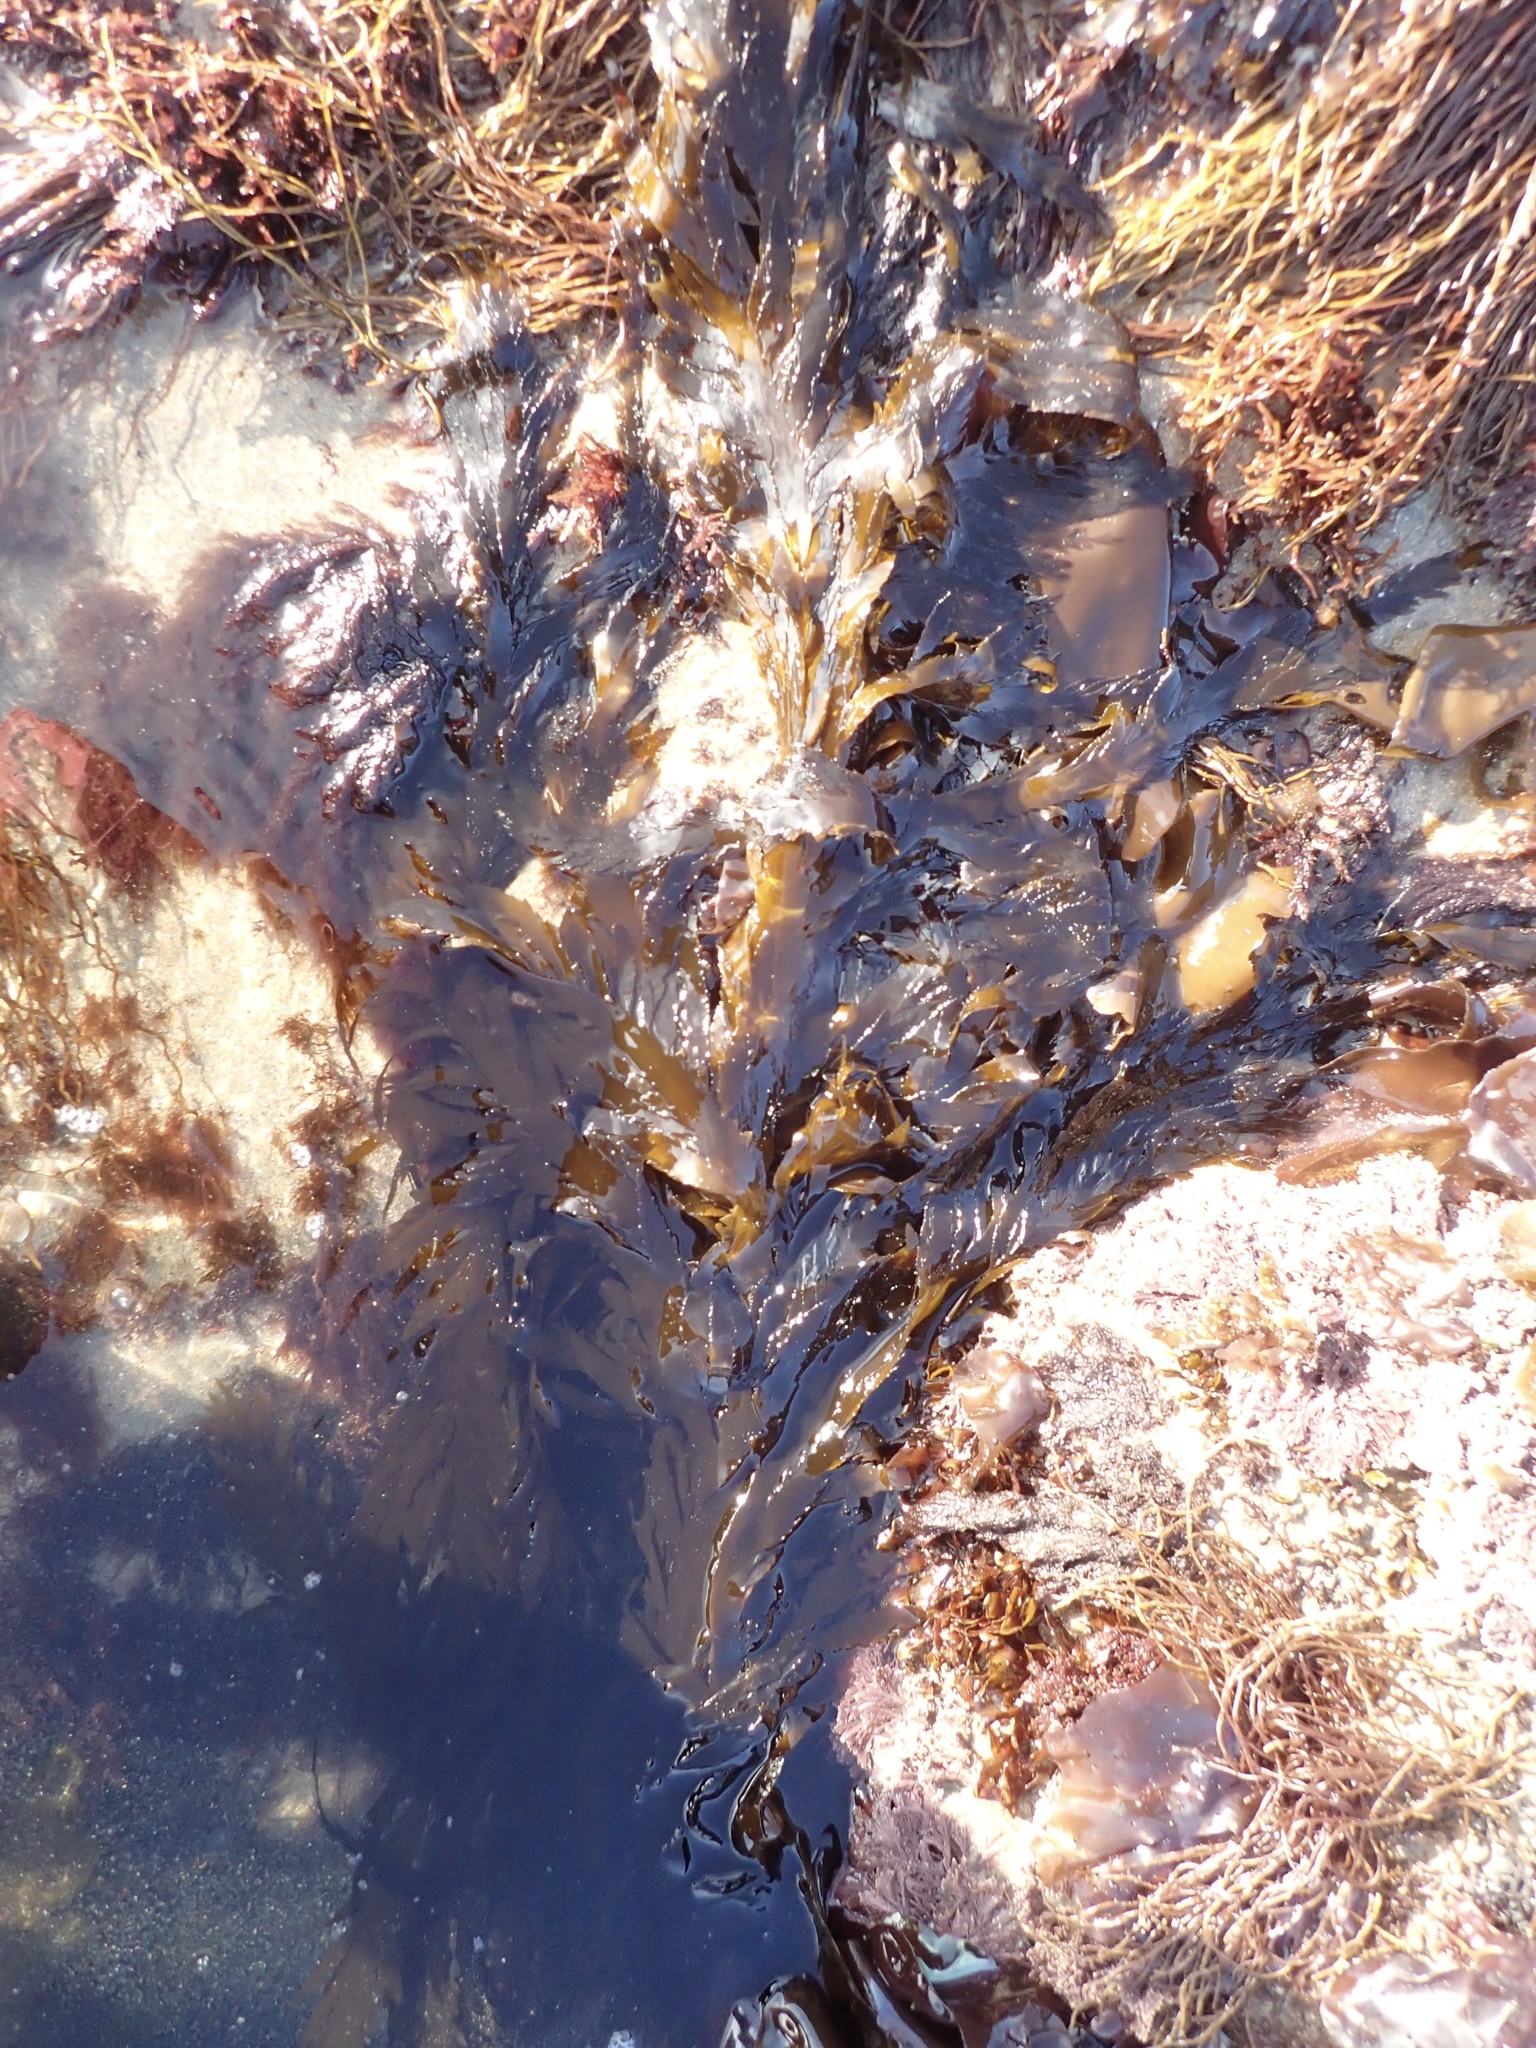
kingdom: Chromista
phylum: Ochrophyta
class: Phaeophyceae
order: Desmarestiales
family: Desmarestiaceae
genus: Desmarestia
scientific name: Desmarestia ligulata
